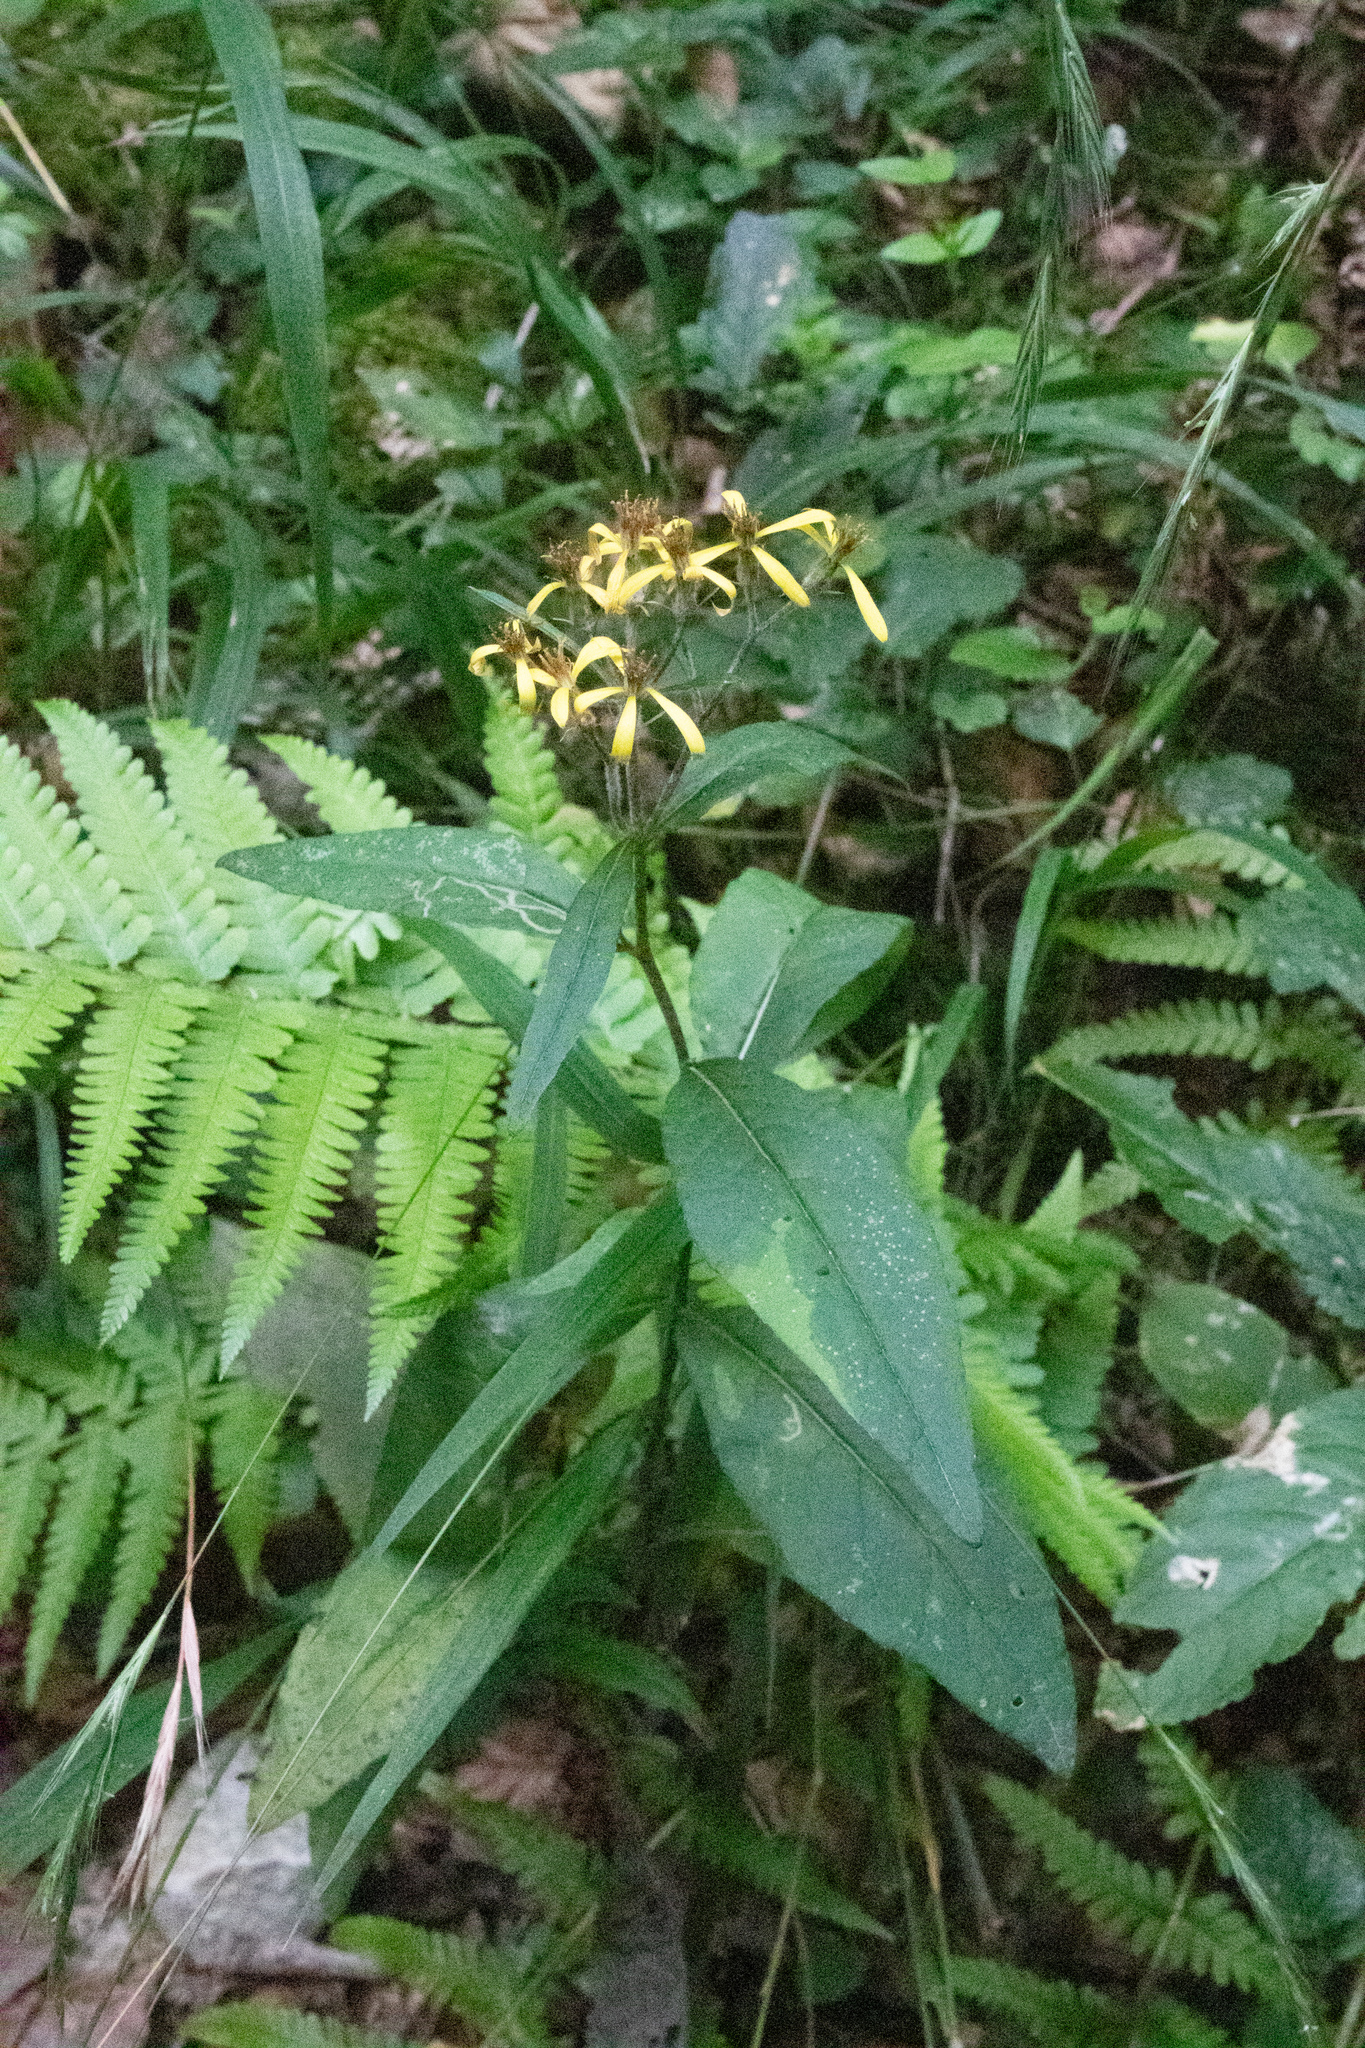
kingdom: Plantae
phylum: Tracheophyta
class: Magnoliopsida
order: Asterales
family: Asteraceae
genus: Senecio
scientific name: Senecio ovatus
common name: Wood ragwort
